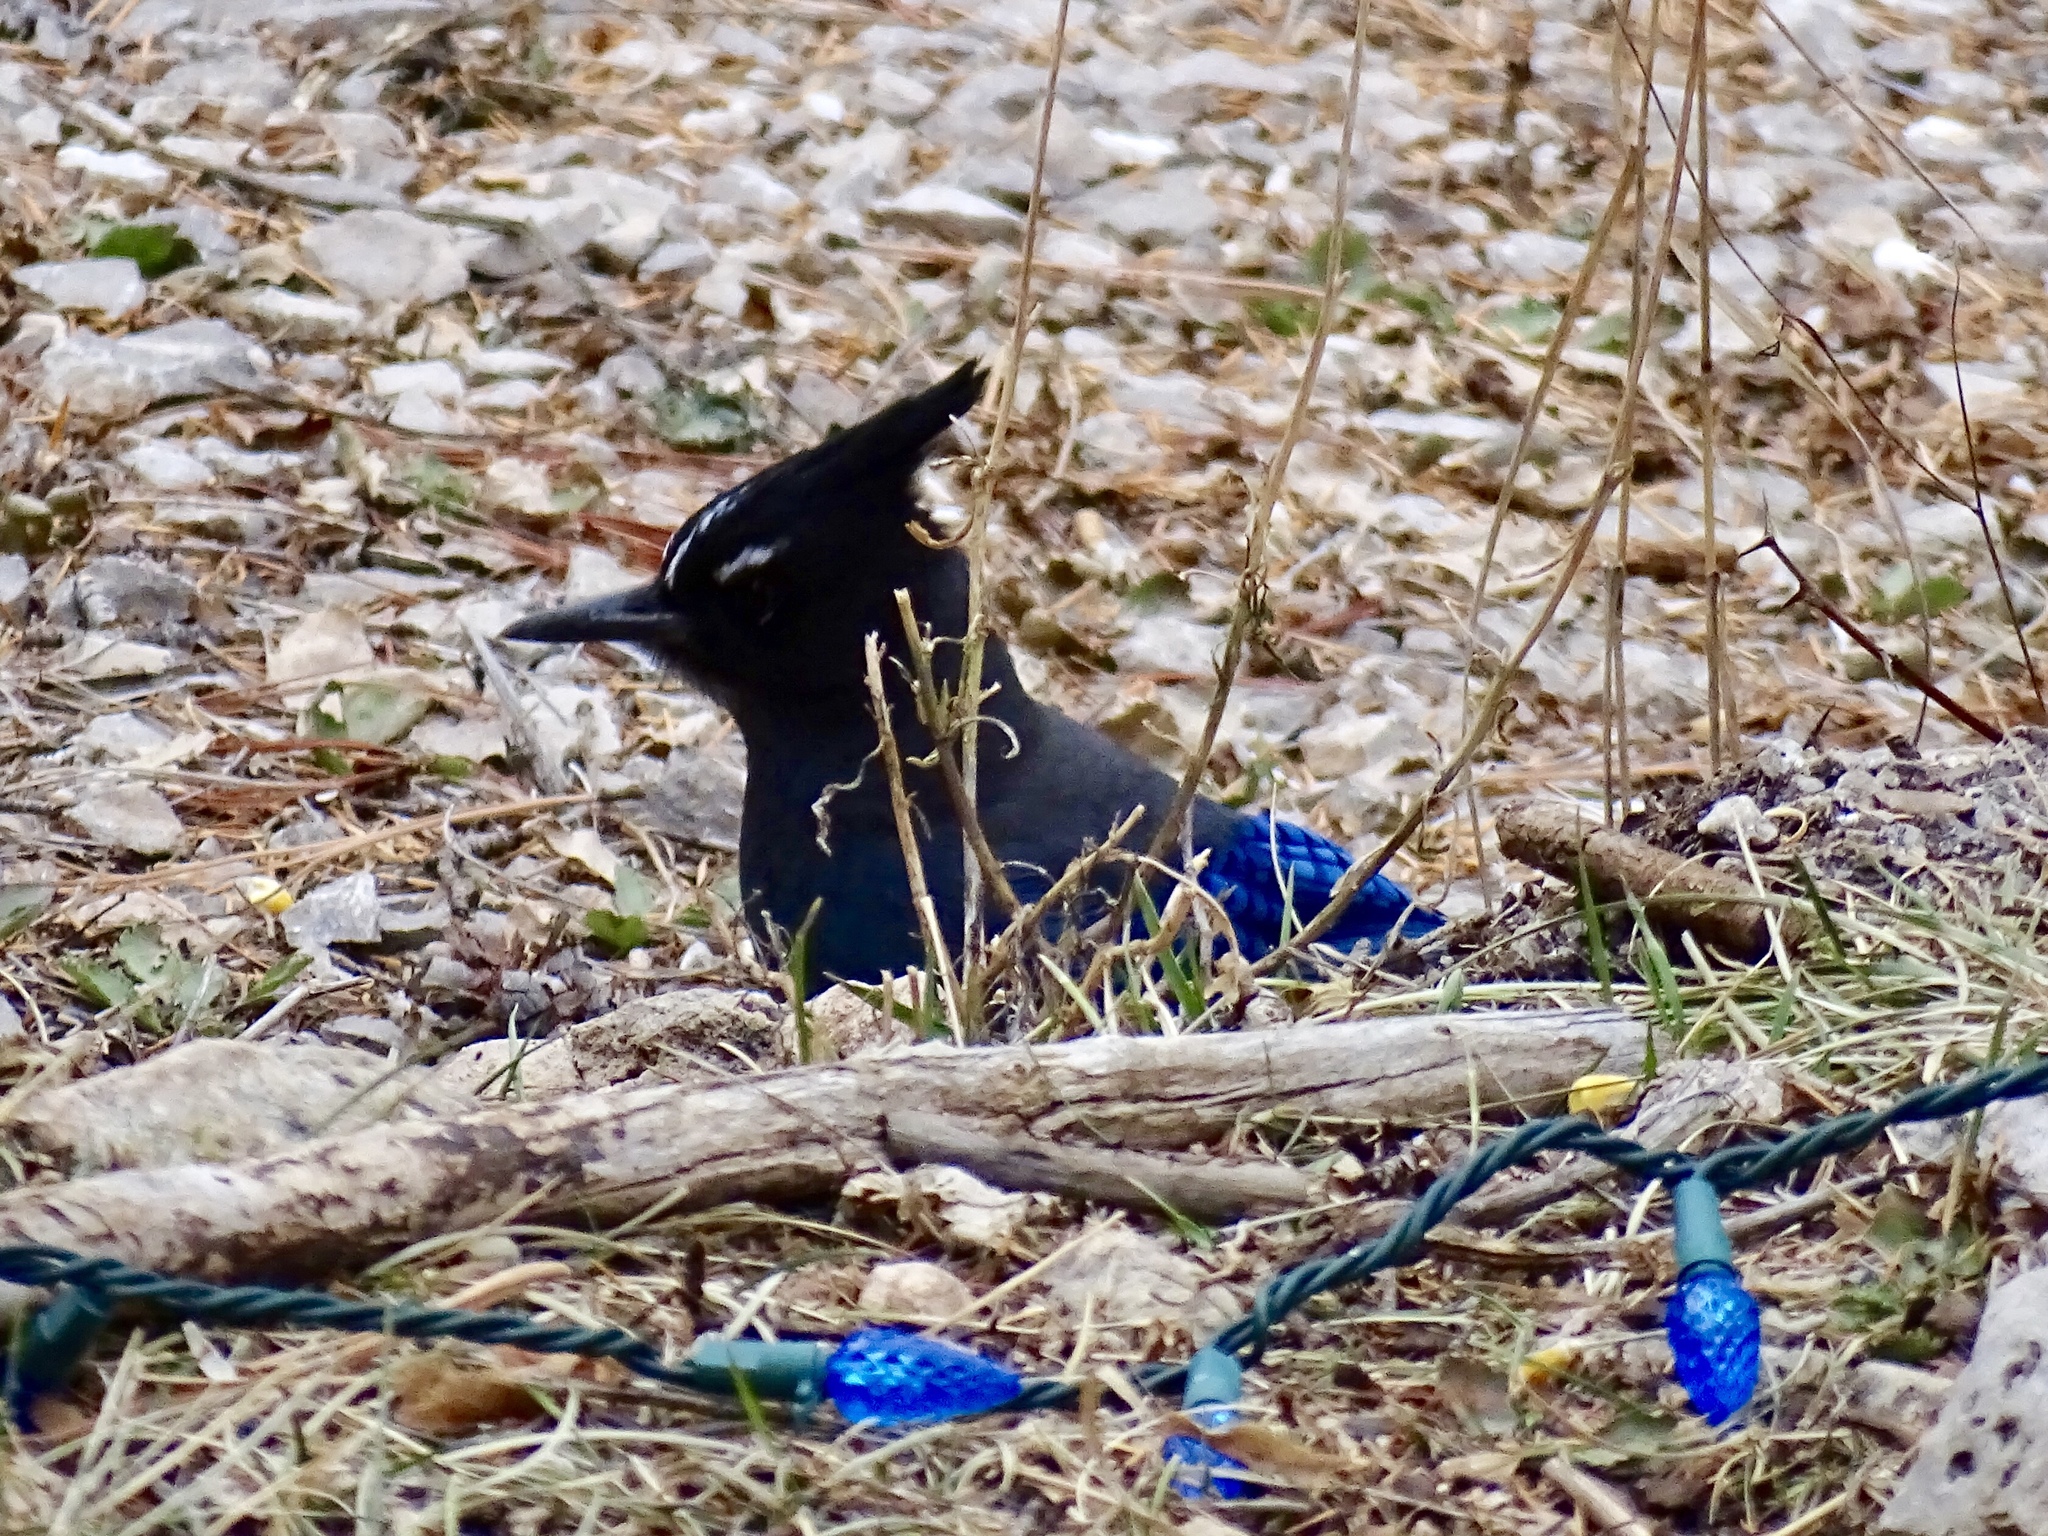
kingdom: Animalia
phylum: Chordata
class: Aves
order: Passeriformes
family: Corvidae
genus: Cyanocitta
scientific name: Cyanocitta stelleri
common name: Steller's jay
